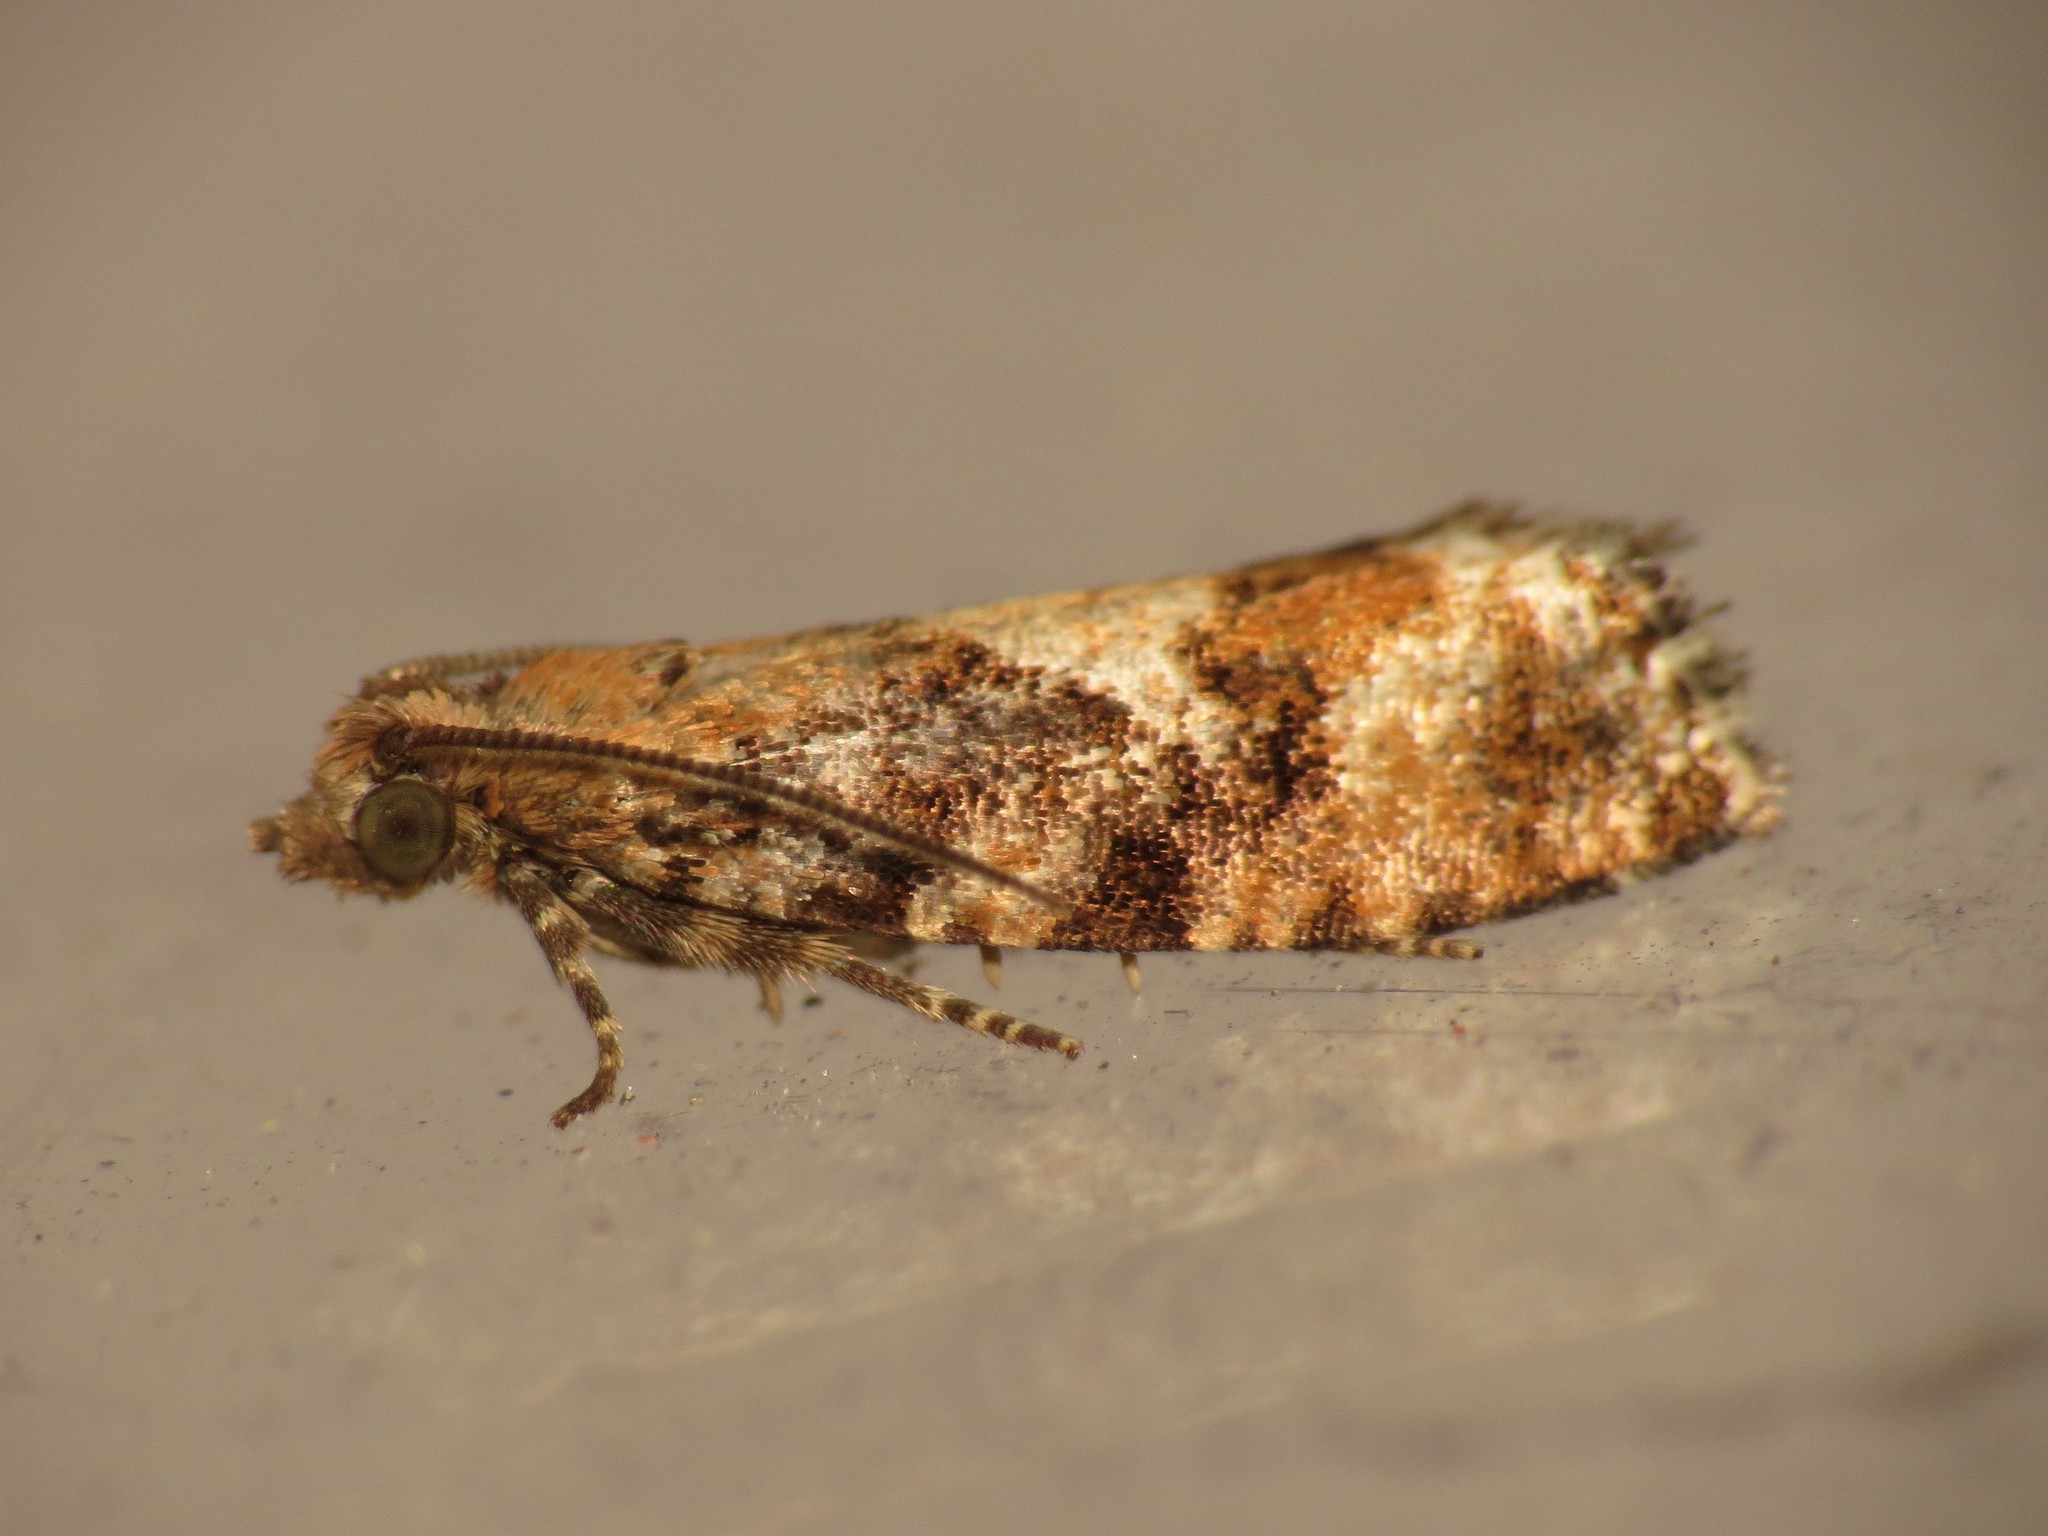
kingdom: Animalia
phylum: Arthropoda
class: Insecta
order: Lepidoptera
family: Tortricidae
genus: Zeiraphera
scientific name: Zeiraphera ratzeburgiana
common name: Spruce-bud moth
